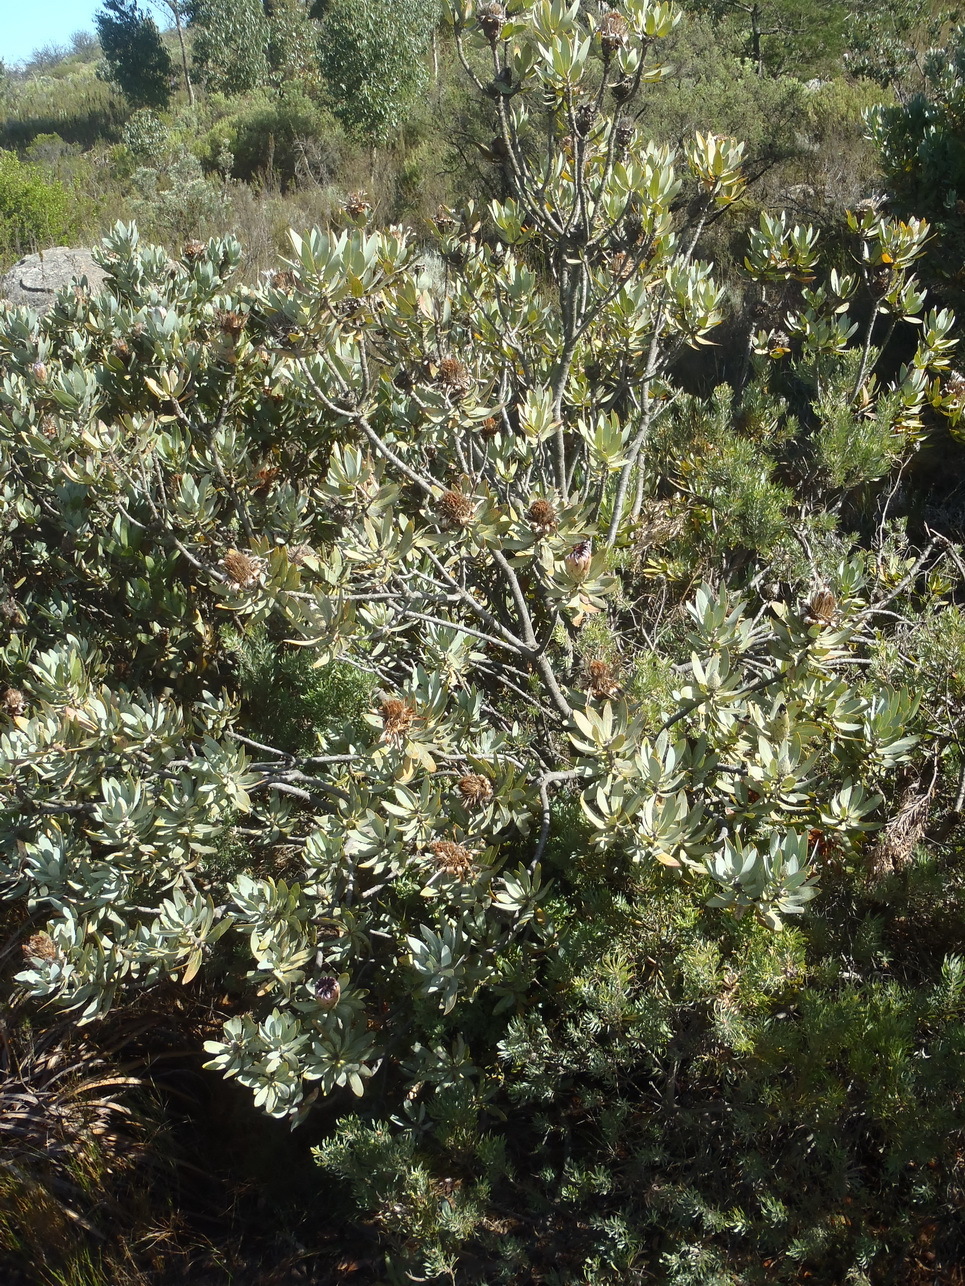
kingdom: Plantae
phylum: Tracheophyta
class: Magnoliopsida
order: Proteales
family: Proteaceae
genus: Protea
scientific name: Protea laurifolia
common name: Grey-leaf sugarbsh
